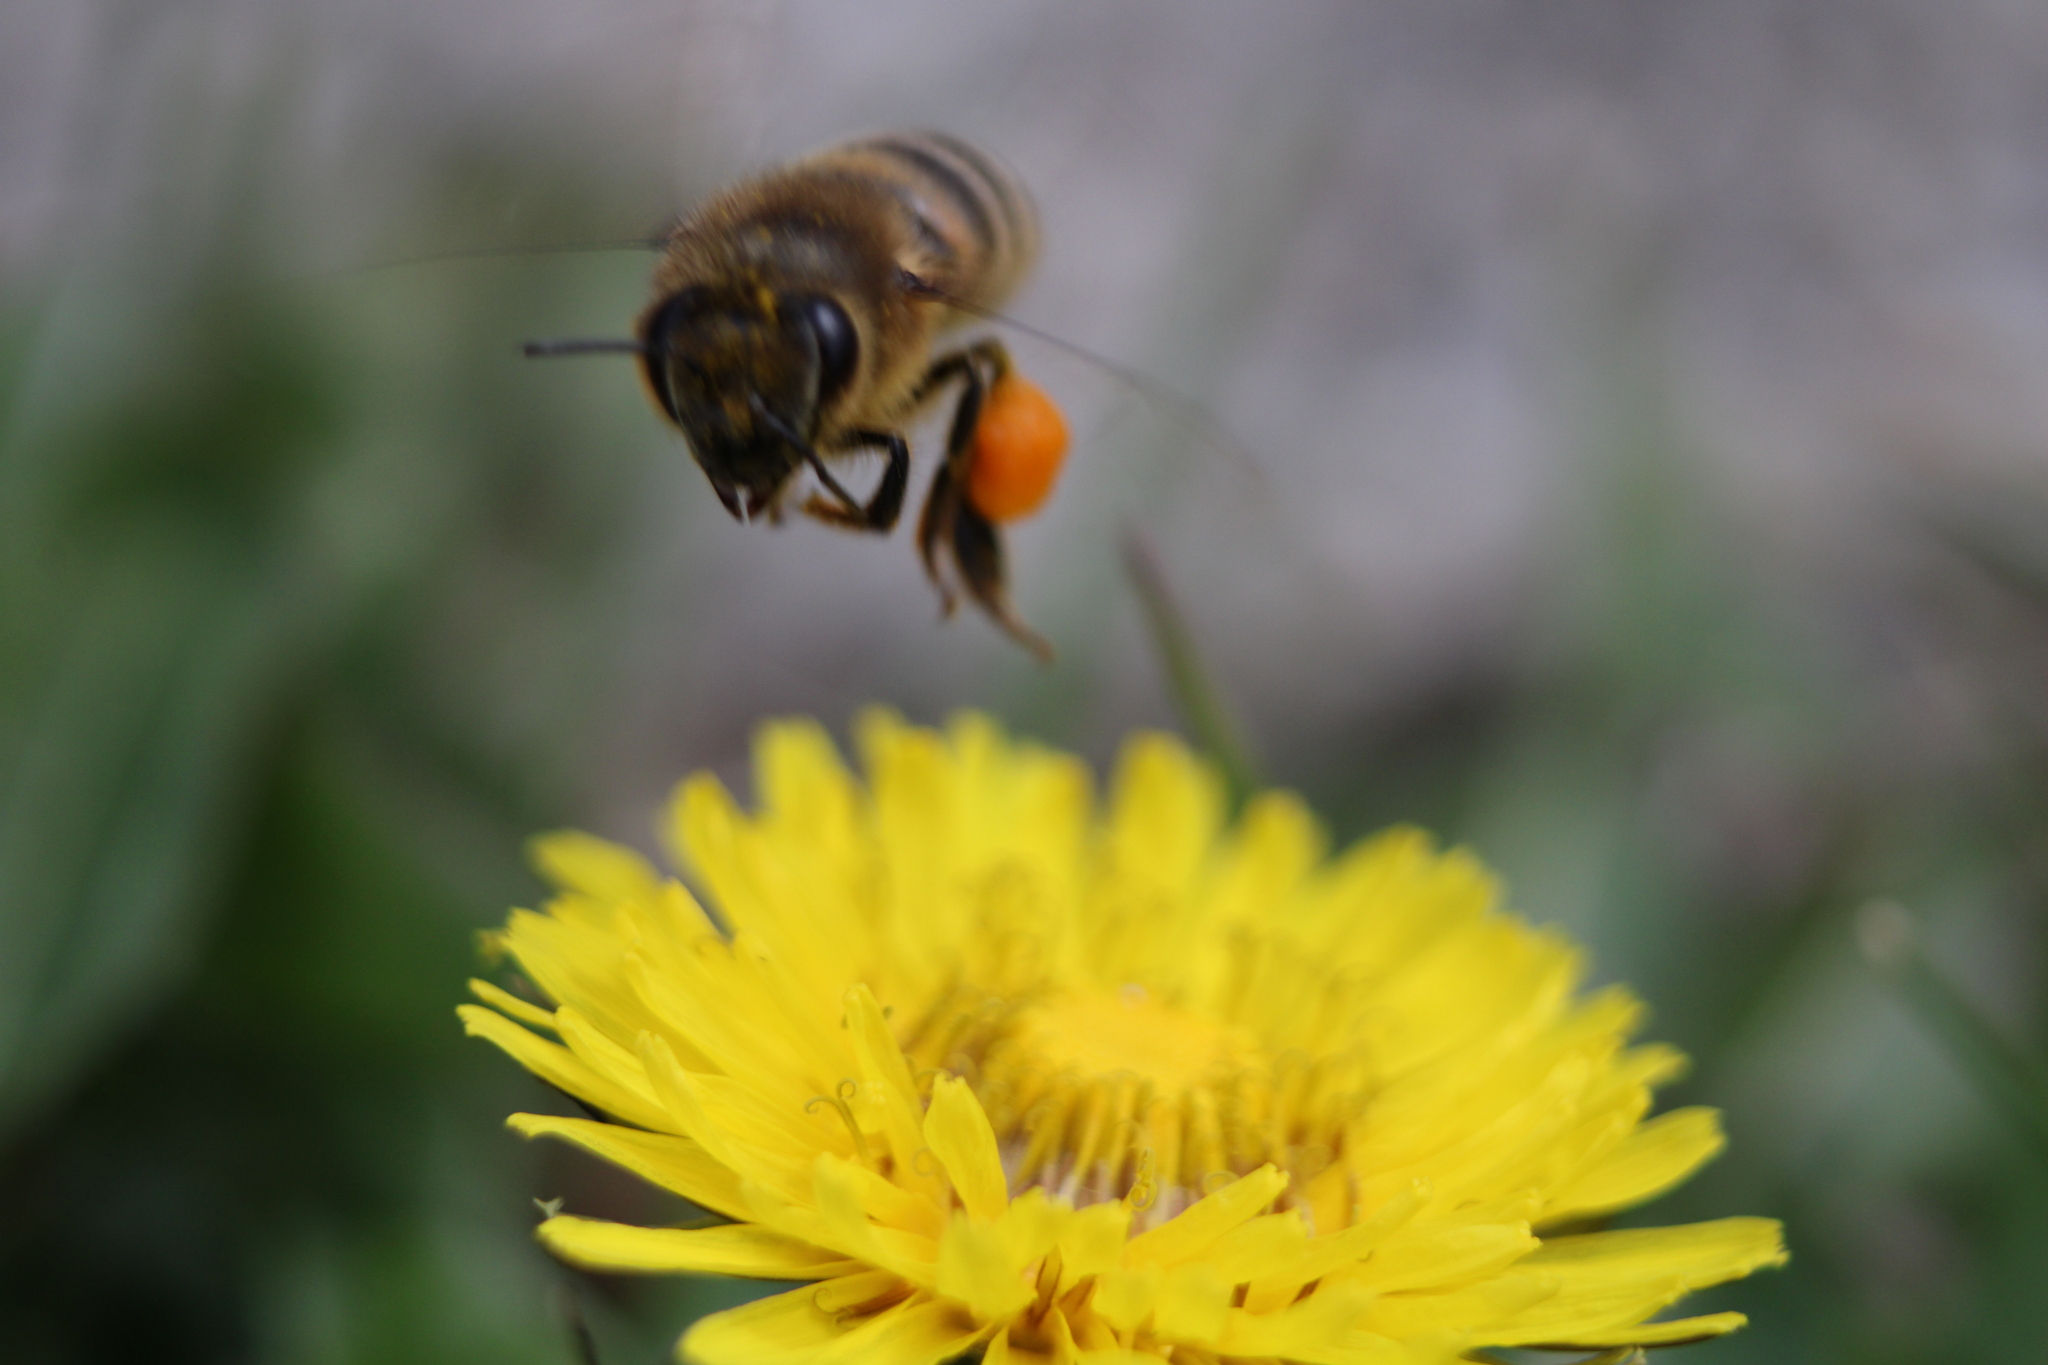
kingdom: Animalia
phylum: Arthropoda
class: Insecta
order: Hymenoptera
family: Apidae
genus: Apis
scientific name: Apis mellifera
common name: Honey bee
